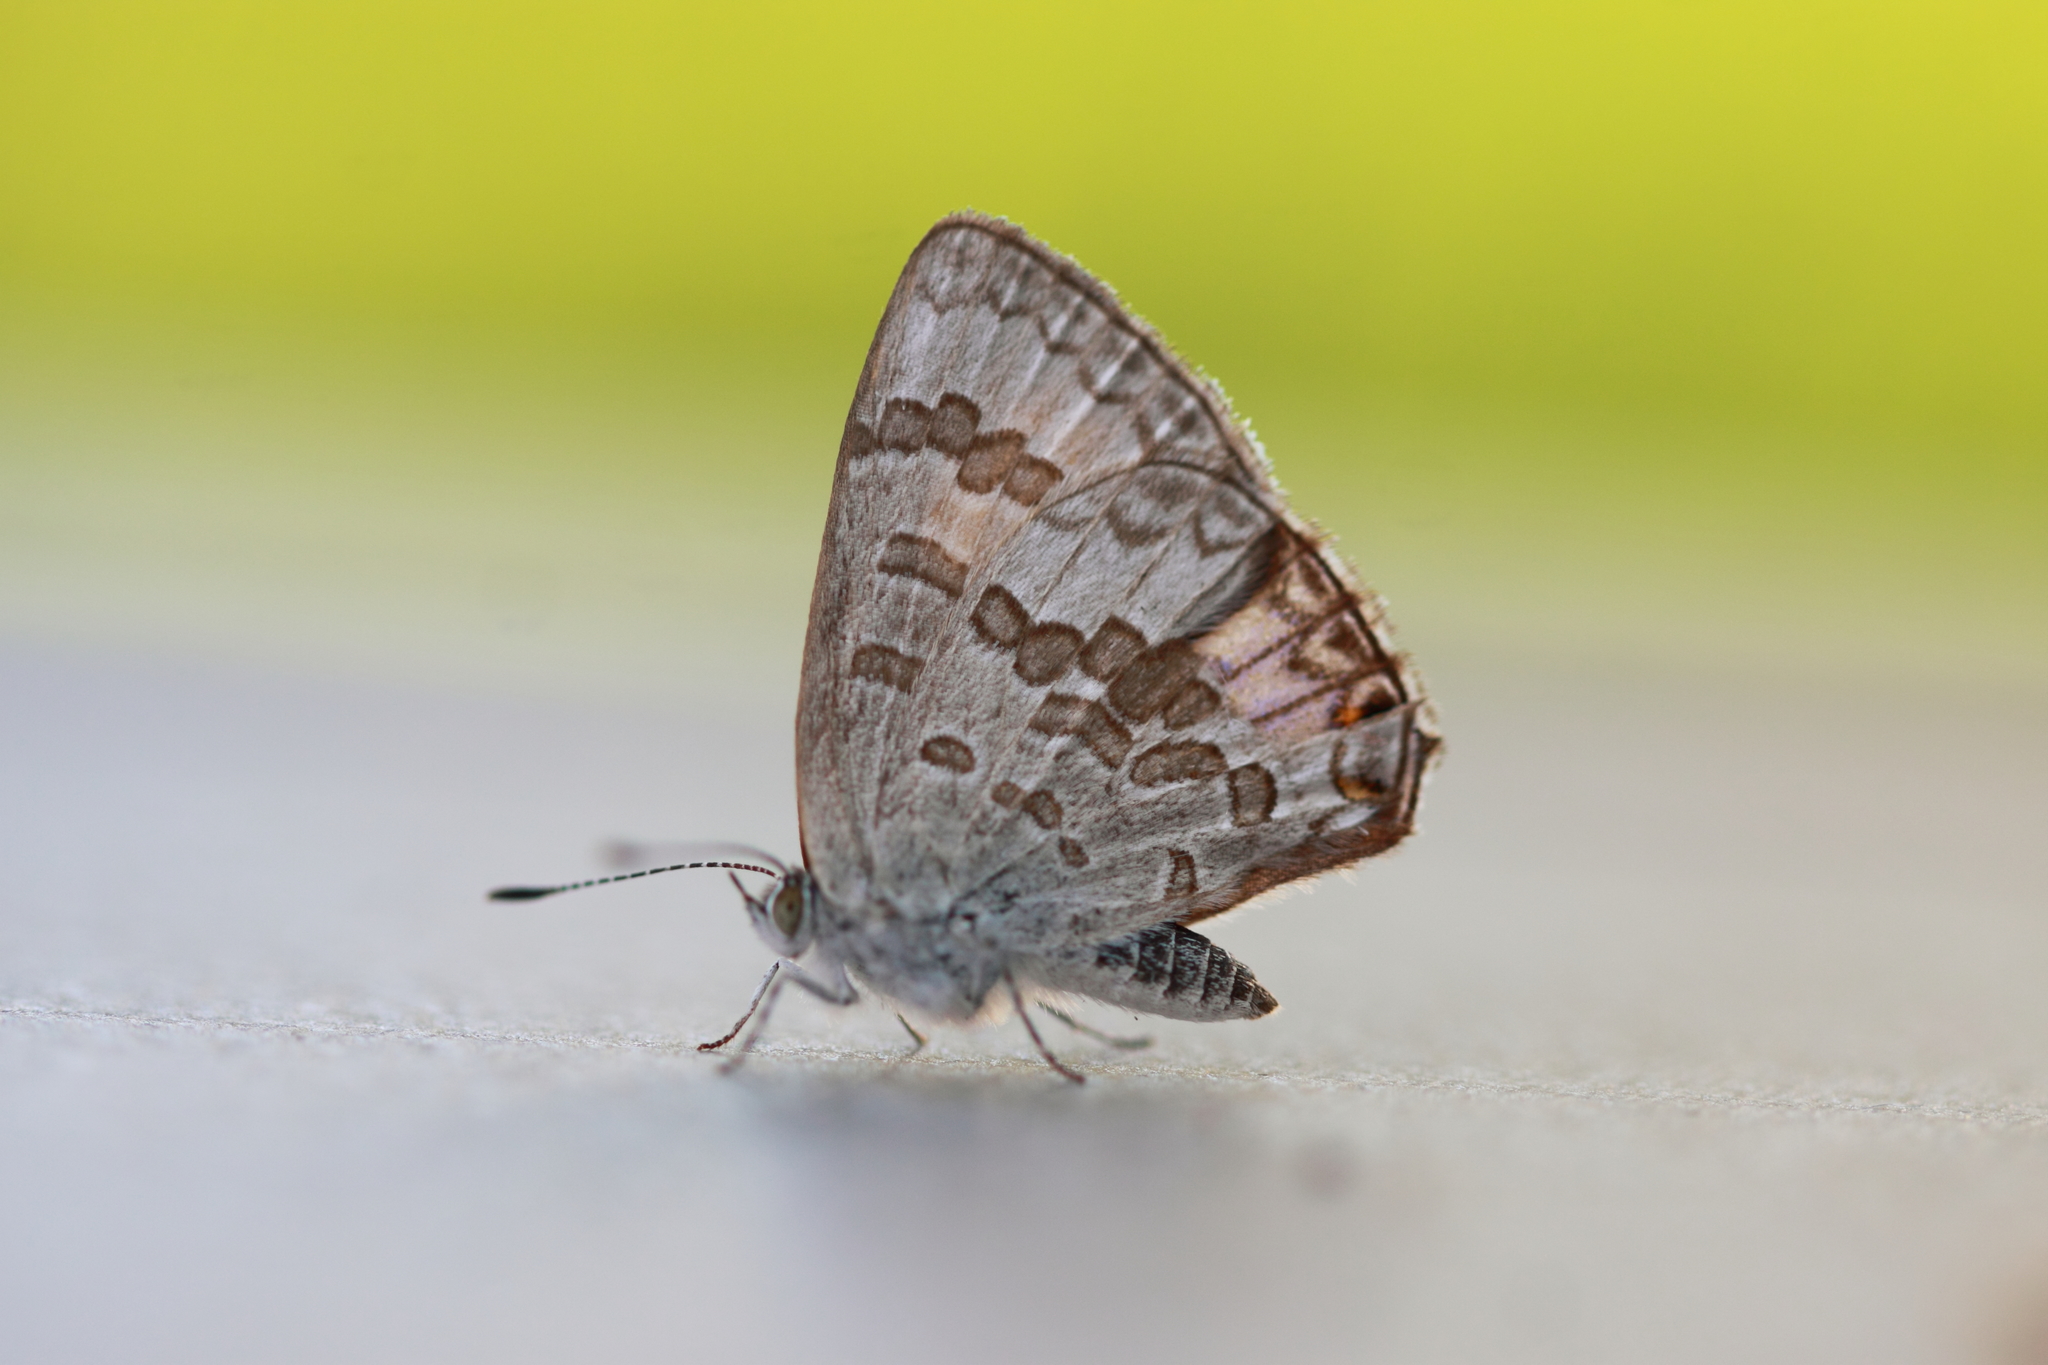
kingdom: Animalia
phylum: Arthropoda
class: Insecta
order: Lepidoptera
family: Lycaenidae
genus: Catopyrops
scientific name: Catopyrops florinda
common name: Speckled line-blue
